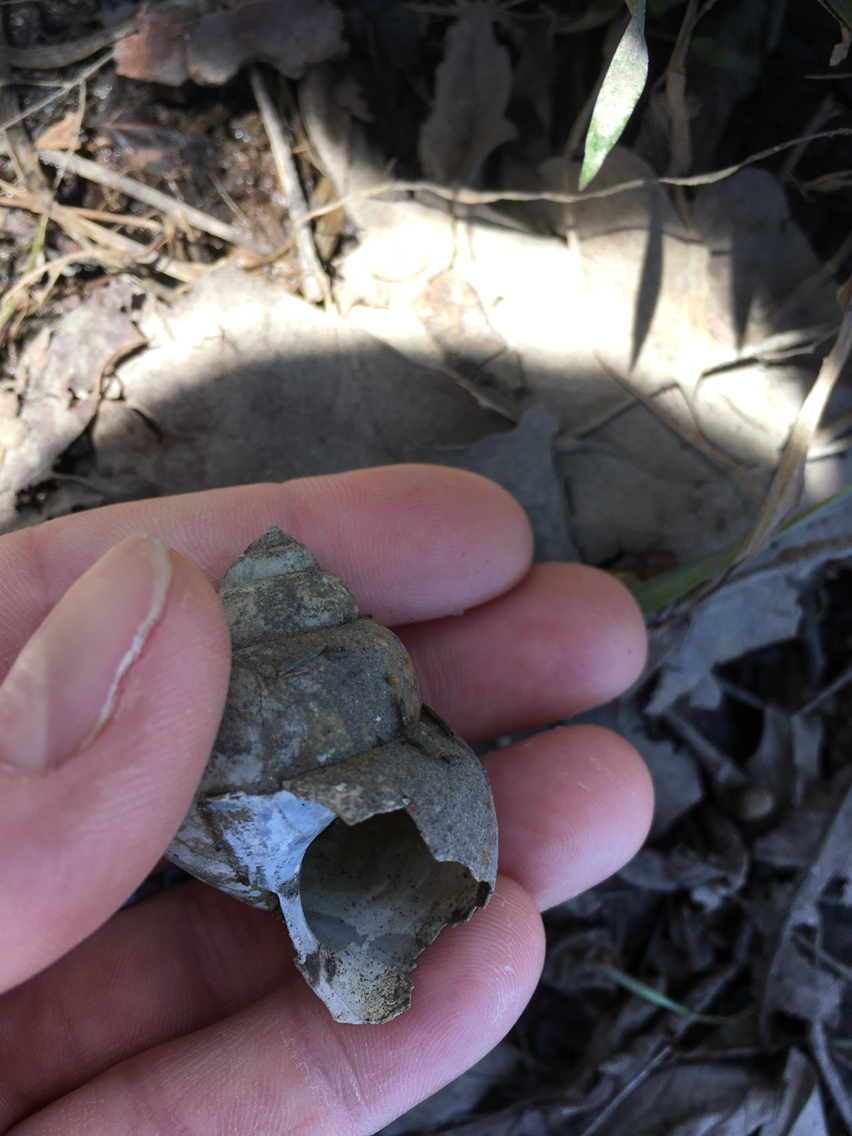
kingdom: Animalia
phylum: Mollusca
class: Gastropoda
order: Architaenioglossa
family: Viviparidae
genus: Cipangopaludina
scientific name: Cipangopaludina chinensis
